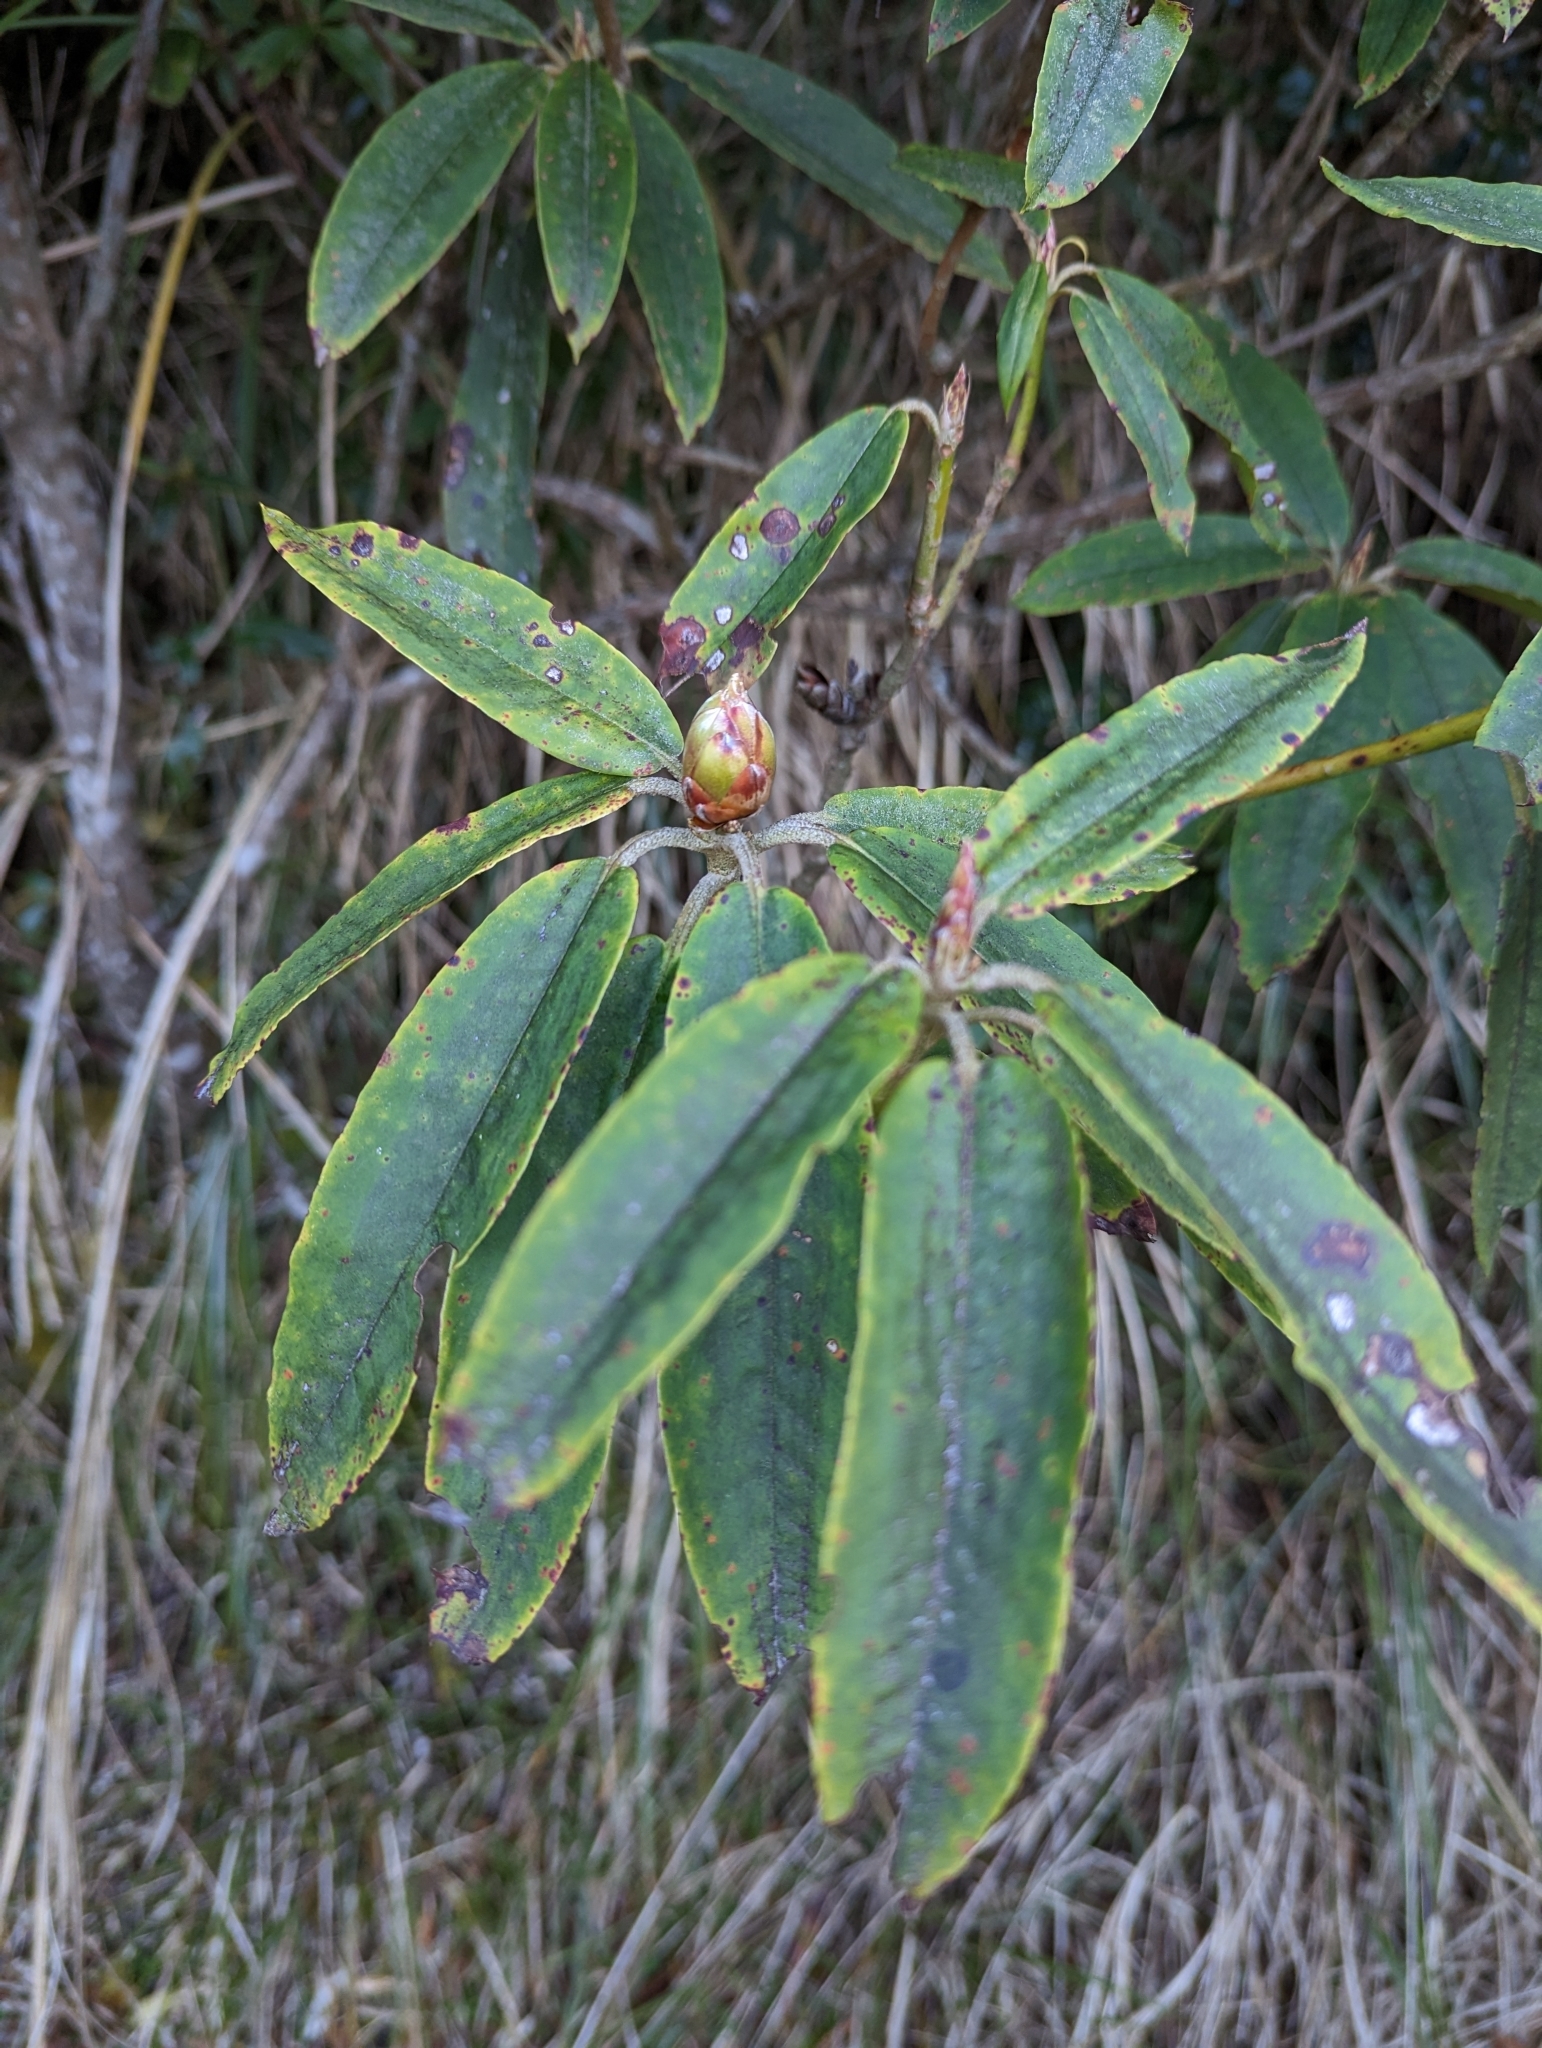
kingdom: Plantae
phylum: Tracheophyta
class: Magnoliopsida
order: Ericales
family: Ericaceae
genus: Rhododendron
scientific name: Rhododendron pseudochrysanthum
